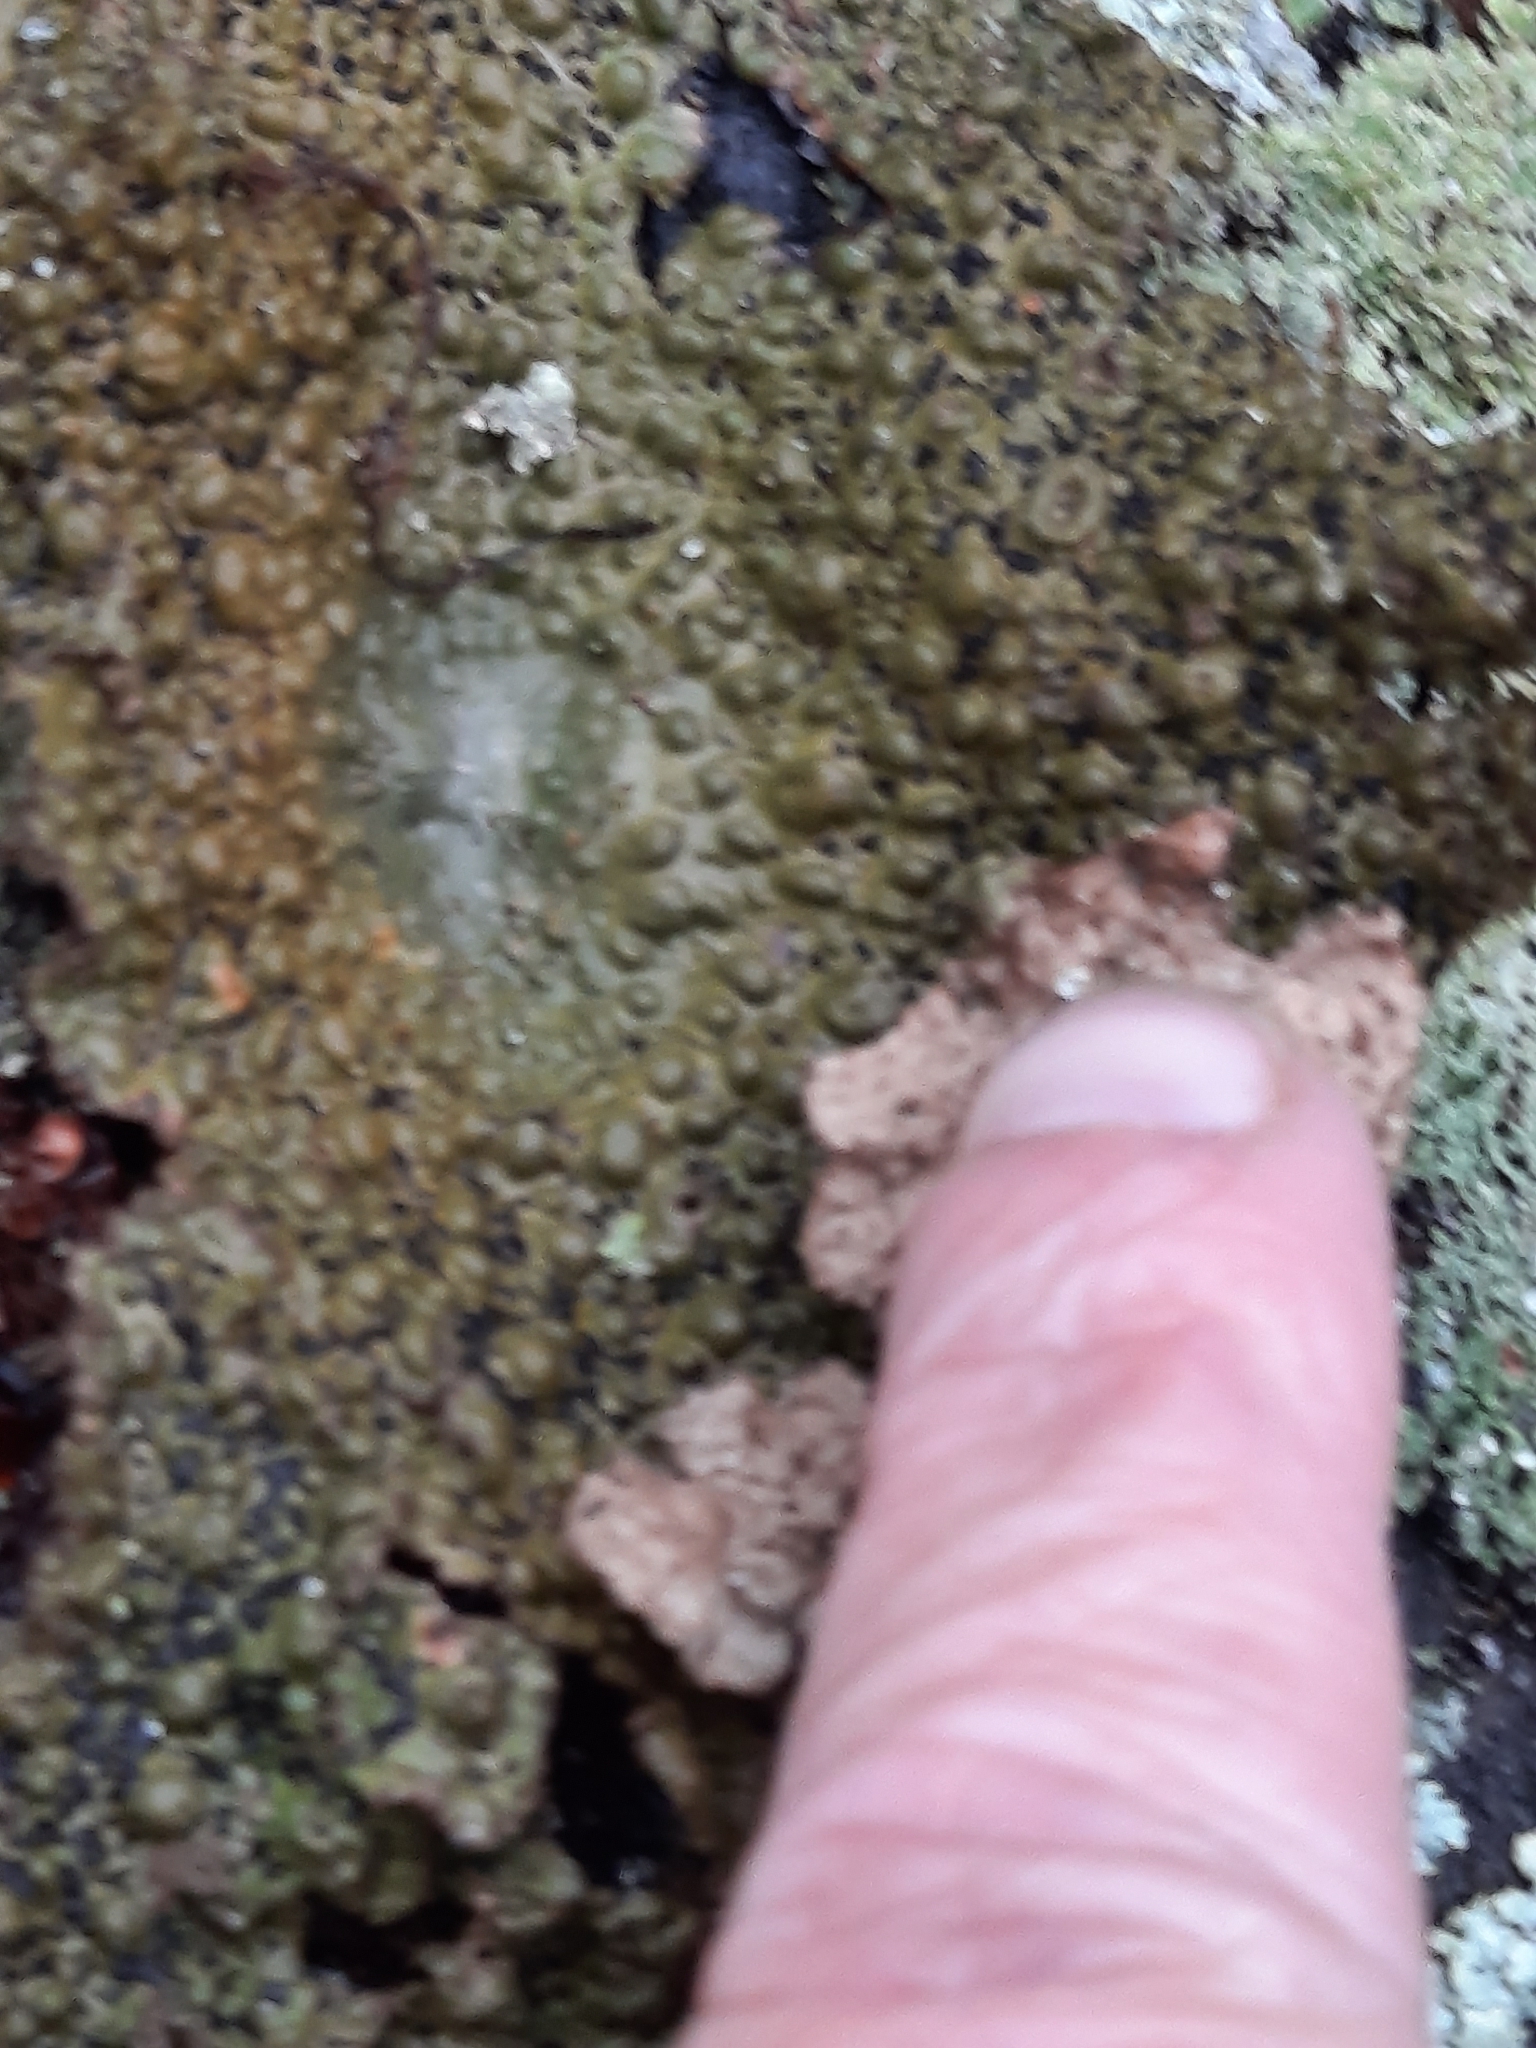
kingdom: Fungi
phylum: Ascomycota
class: Lecanoromycetes
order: Umbilicariales
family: Umbilicariaceae
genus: Lasallia
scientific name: Lasallia papulosa
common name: Common toadskin lichen
